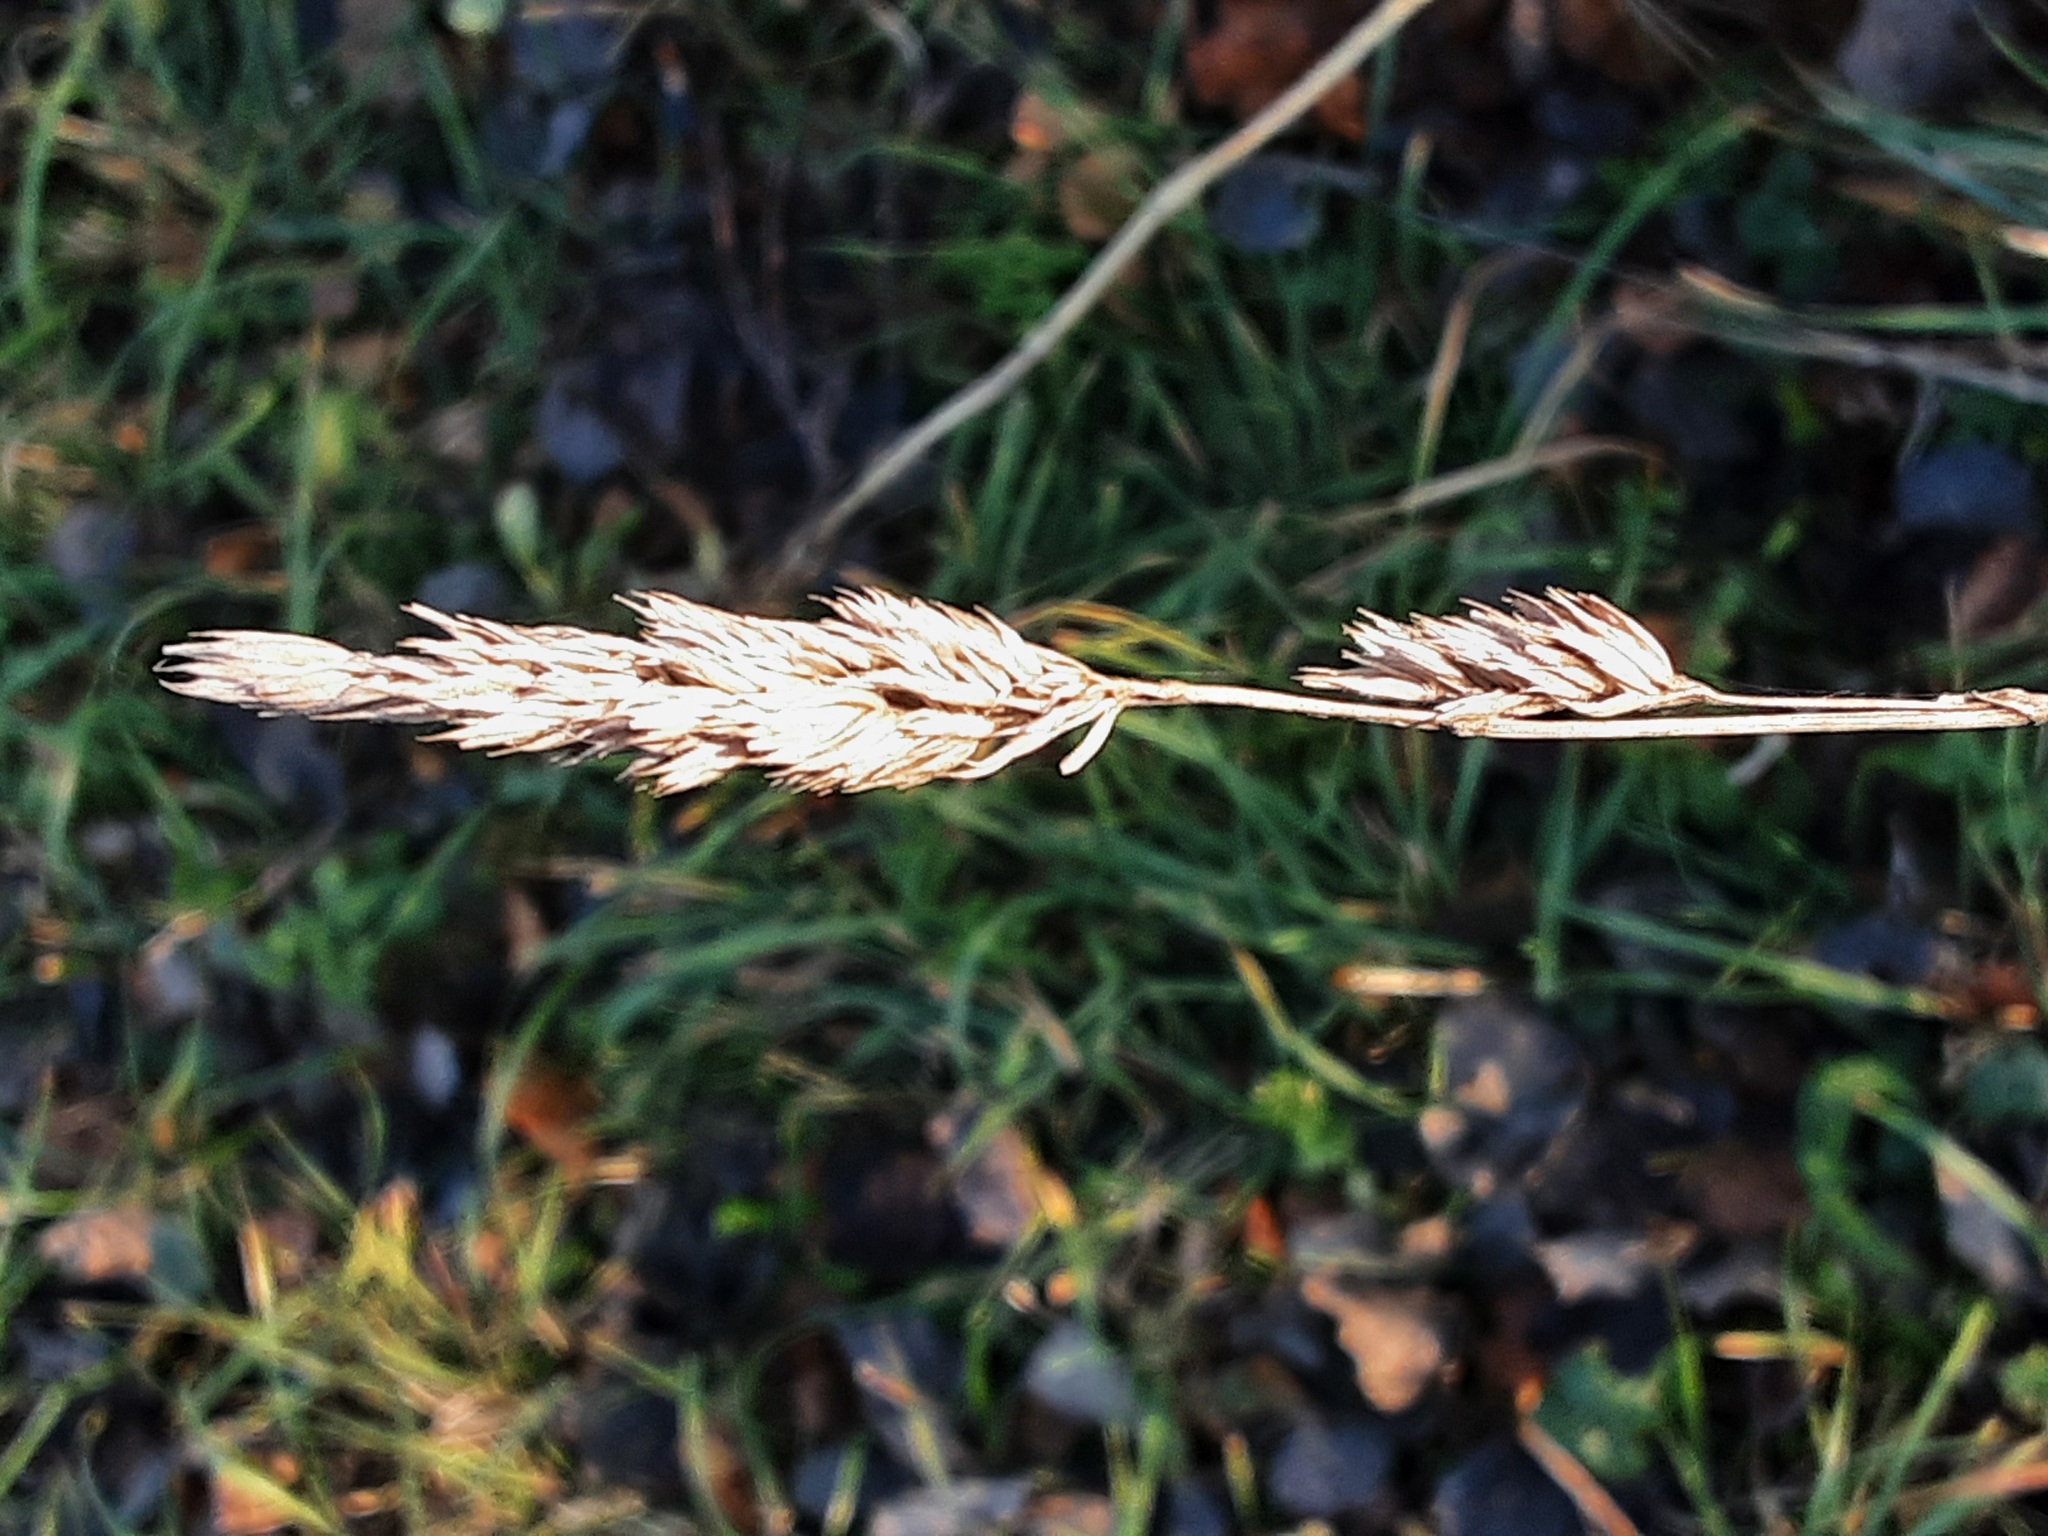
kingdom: Plantae
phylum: Tracheophyta
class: Liliopsida
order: Poales
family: Poaceae
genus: Dactylis
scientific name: Dactylis glomerata
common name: Orchardgrass
